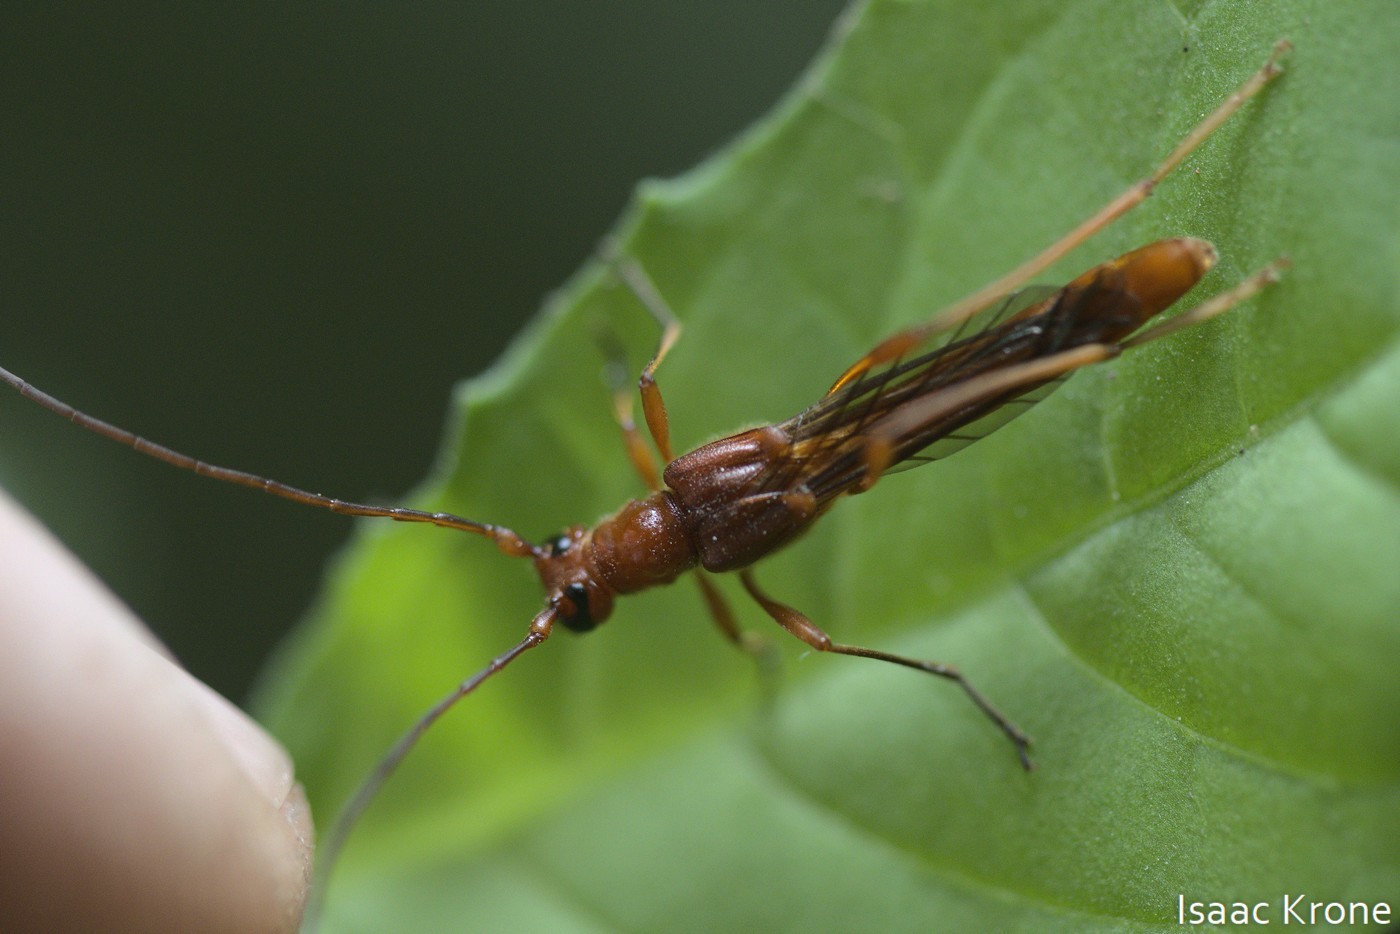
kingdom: Animalia
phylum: Arthropoda
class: Insecta
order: Coleoptera
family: Cerambycidae
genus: Necydalis
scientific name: Necydalis laevicollis
